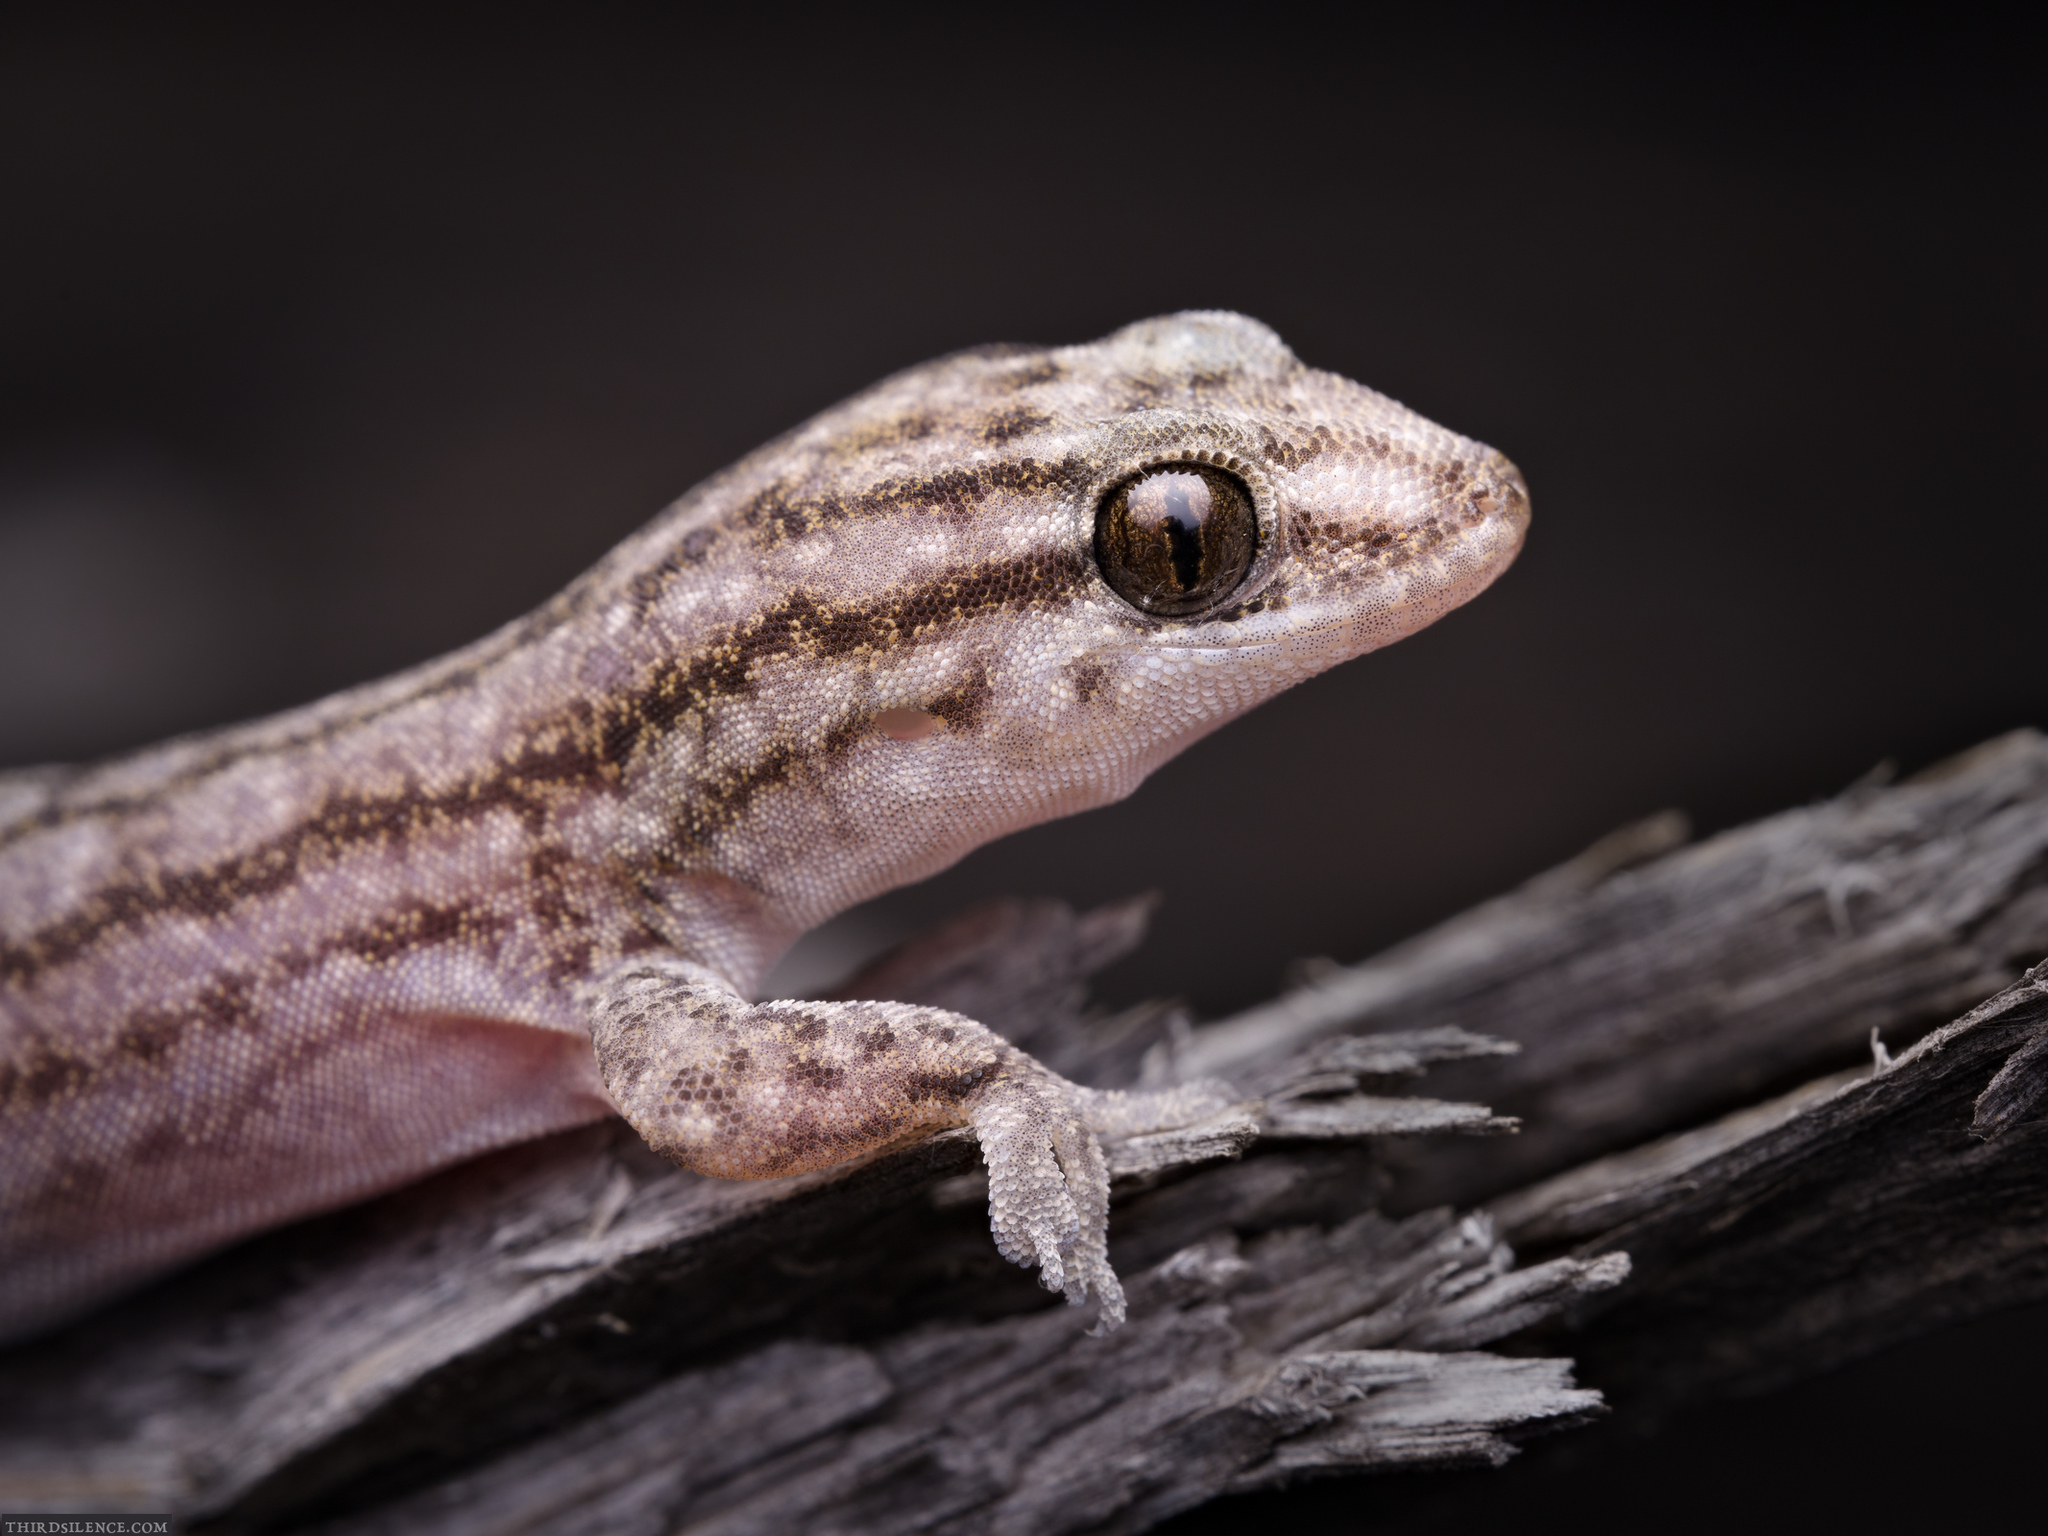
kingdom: Animalia
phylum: Chordata
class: Squamata
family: Gekkonidae
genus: Gehyra
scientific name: Gehyra versicolor
